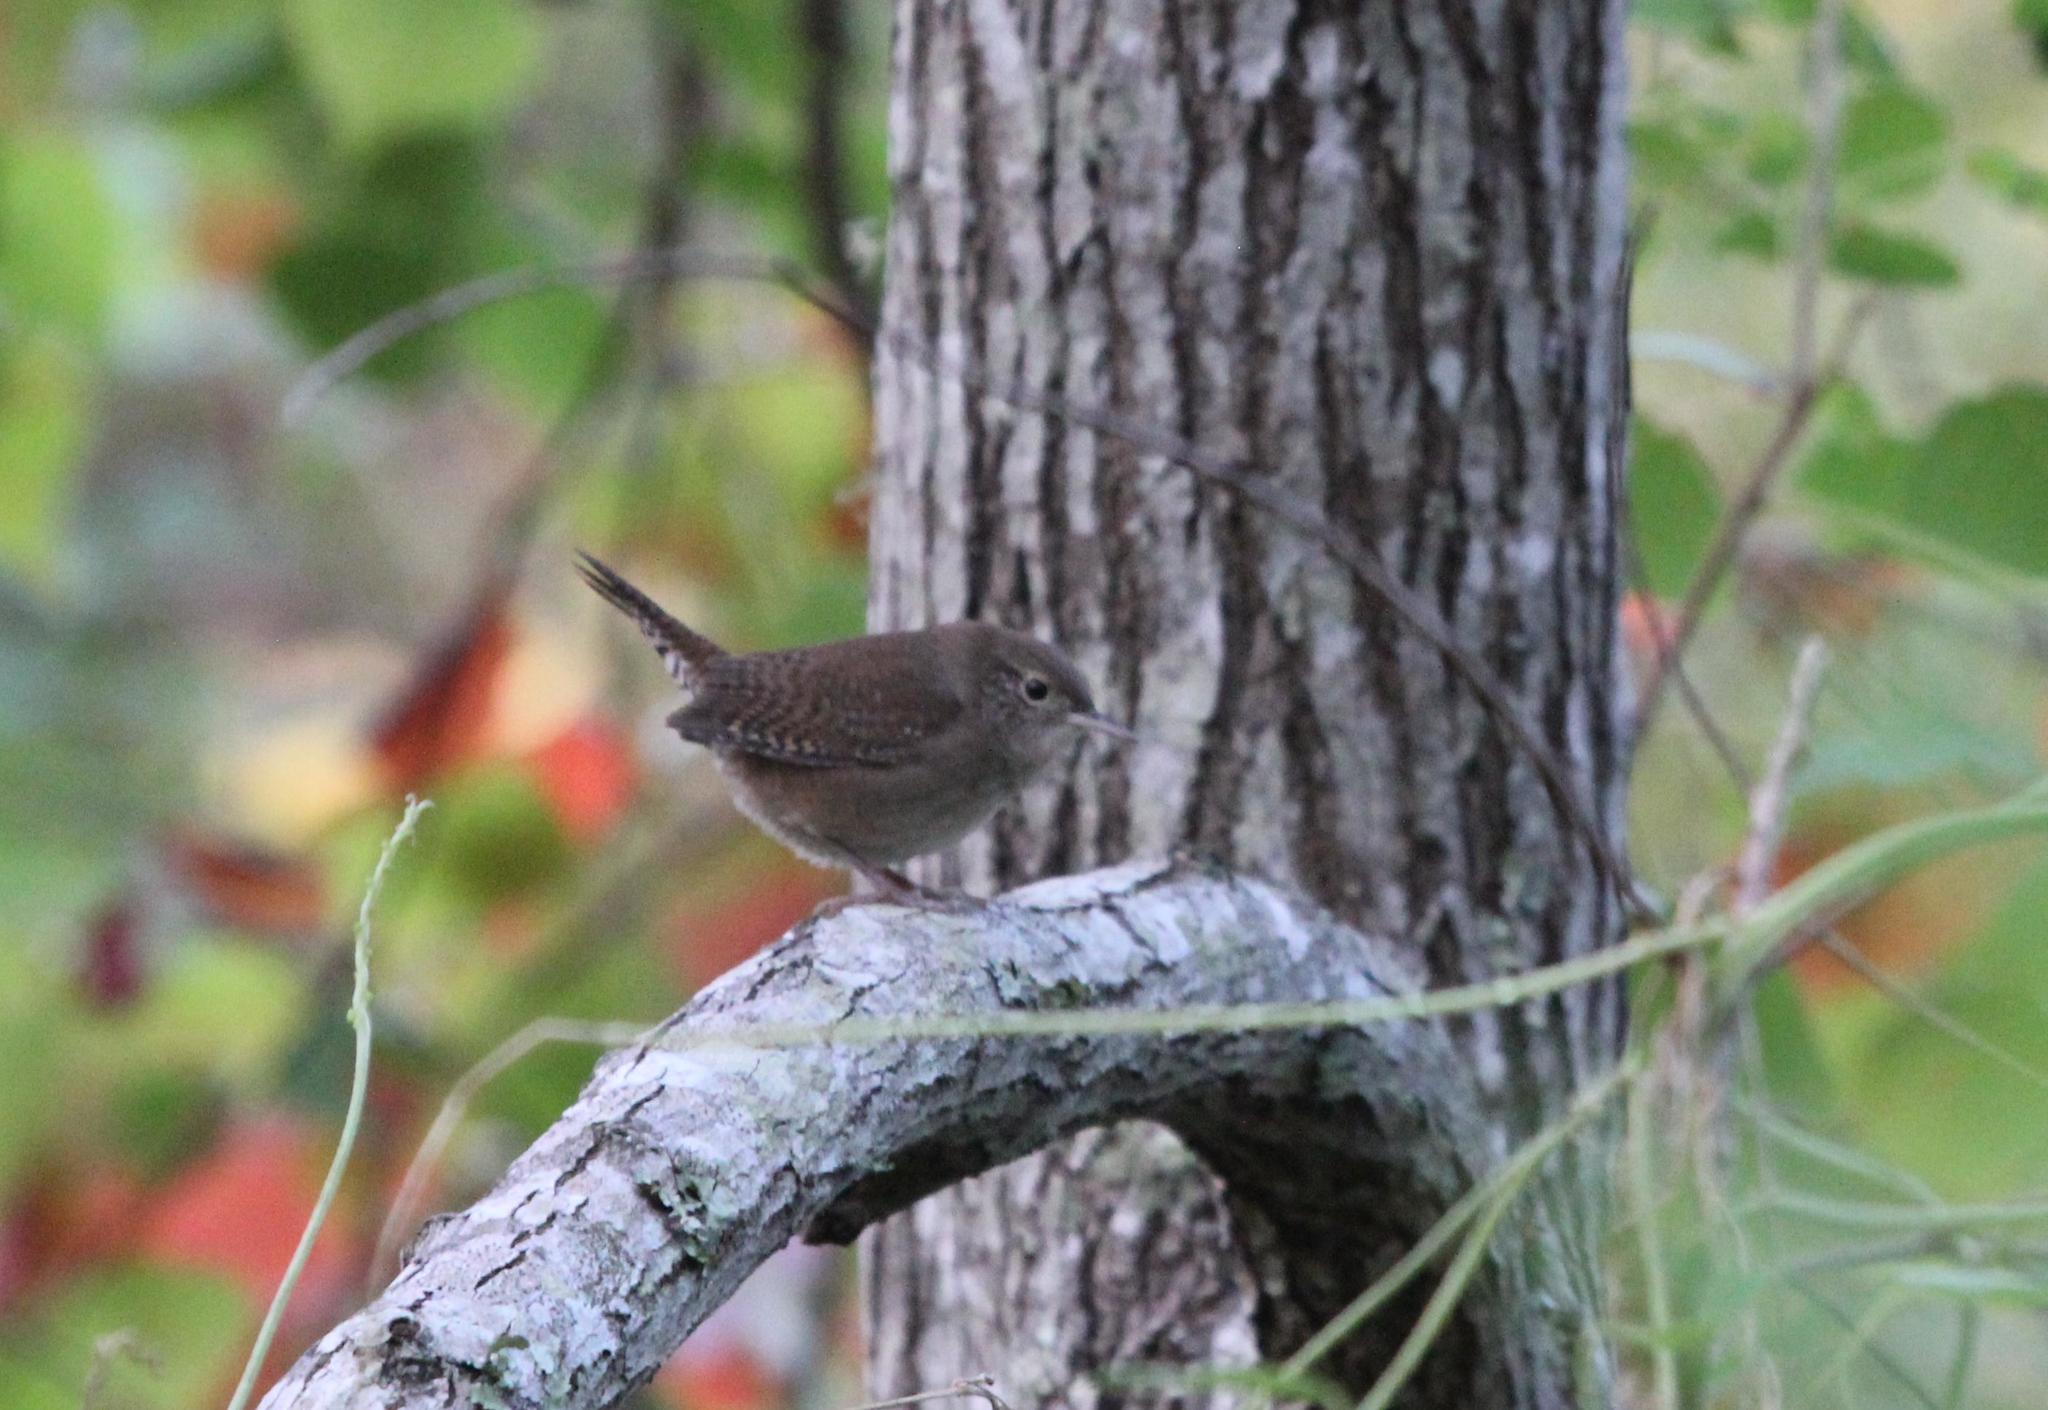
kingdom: Animalia
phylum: Chordata
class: Aves
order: Passeriformes
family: Troglodytidae
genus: Troglodytes
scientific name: Troglodytes aedon
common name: House wren
